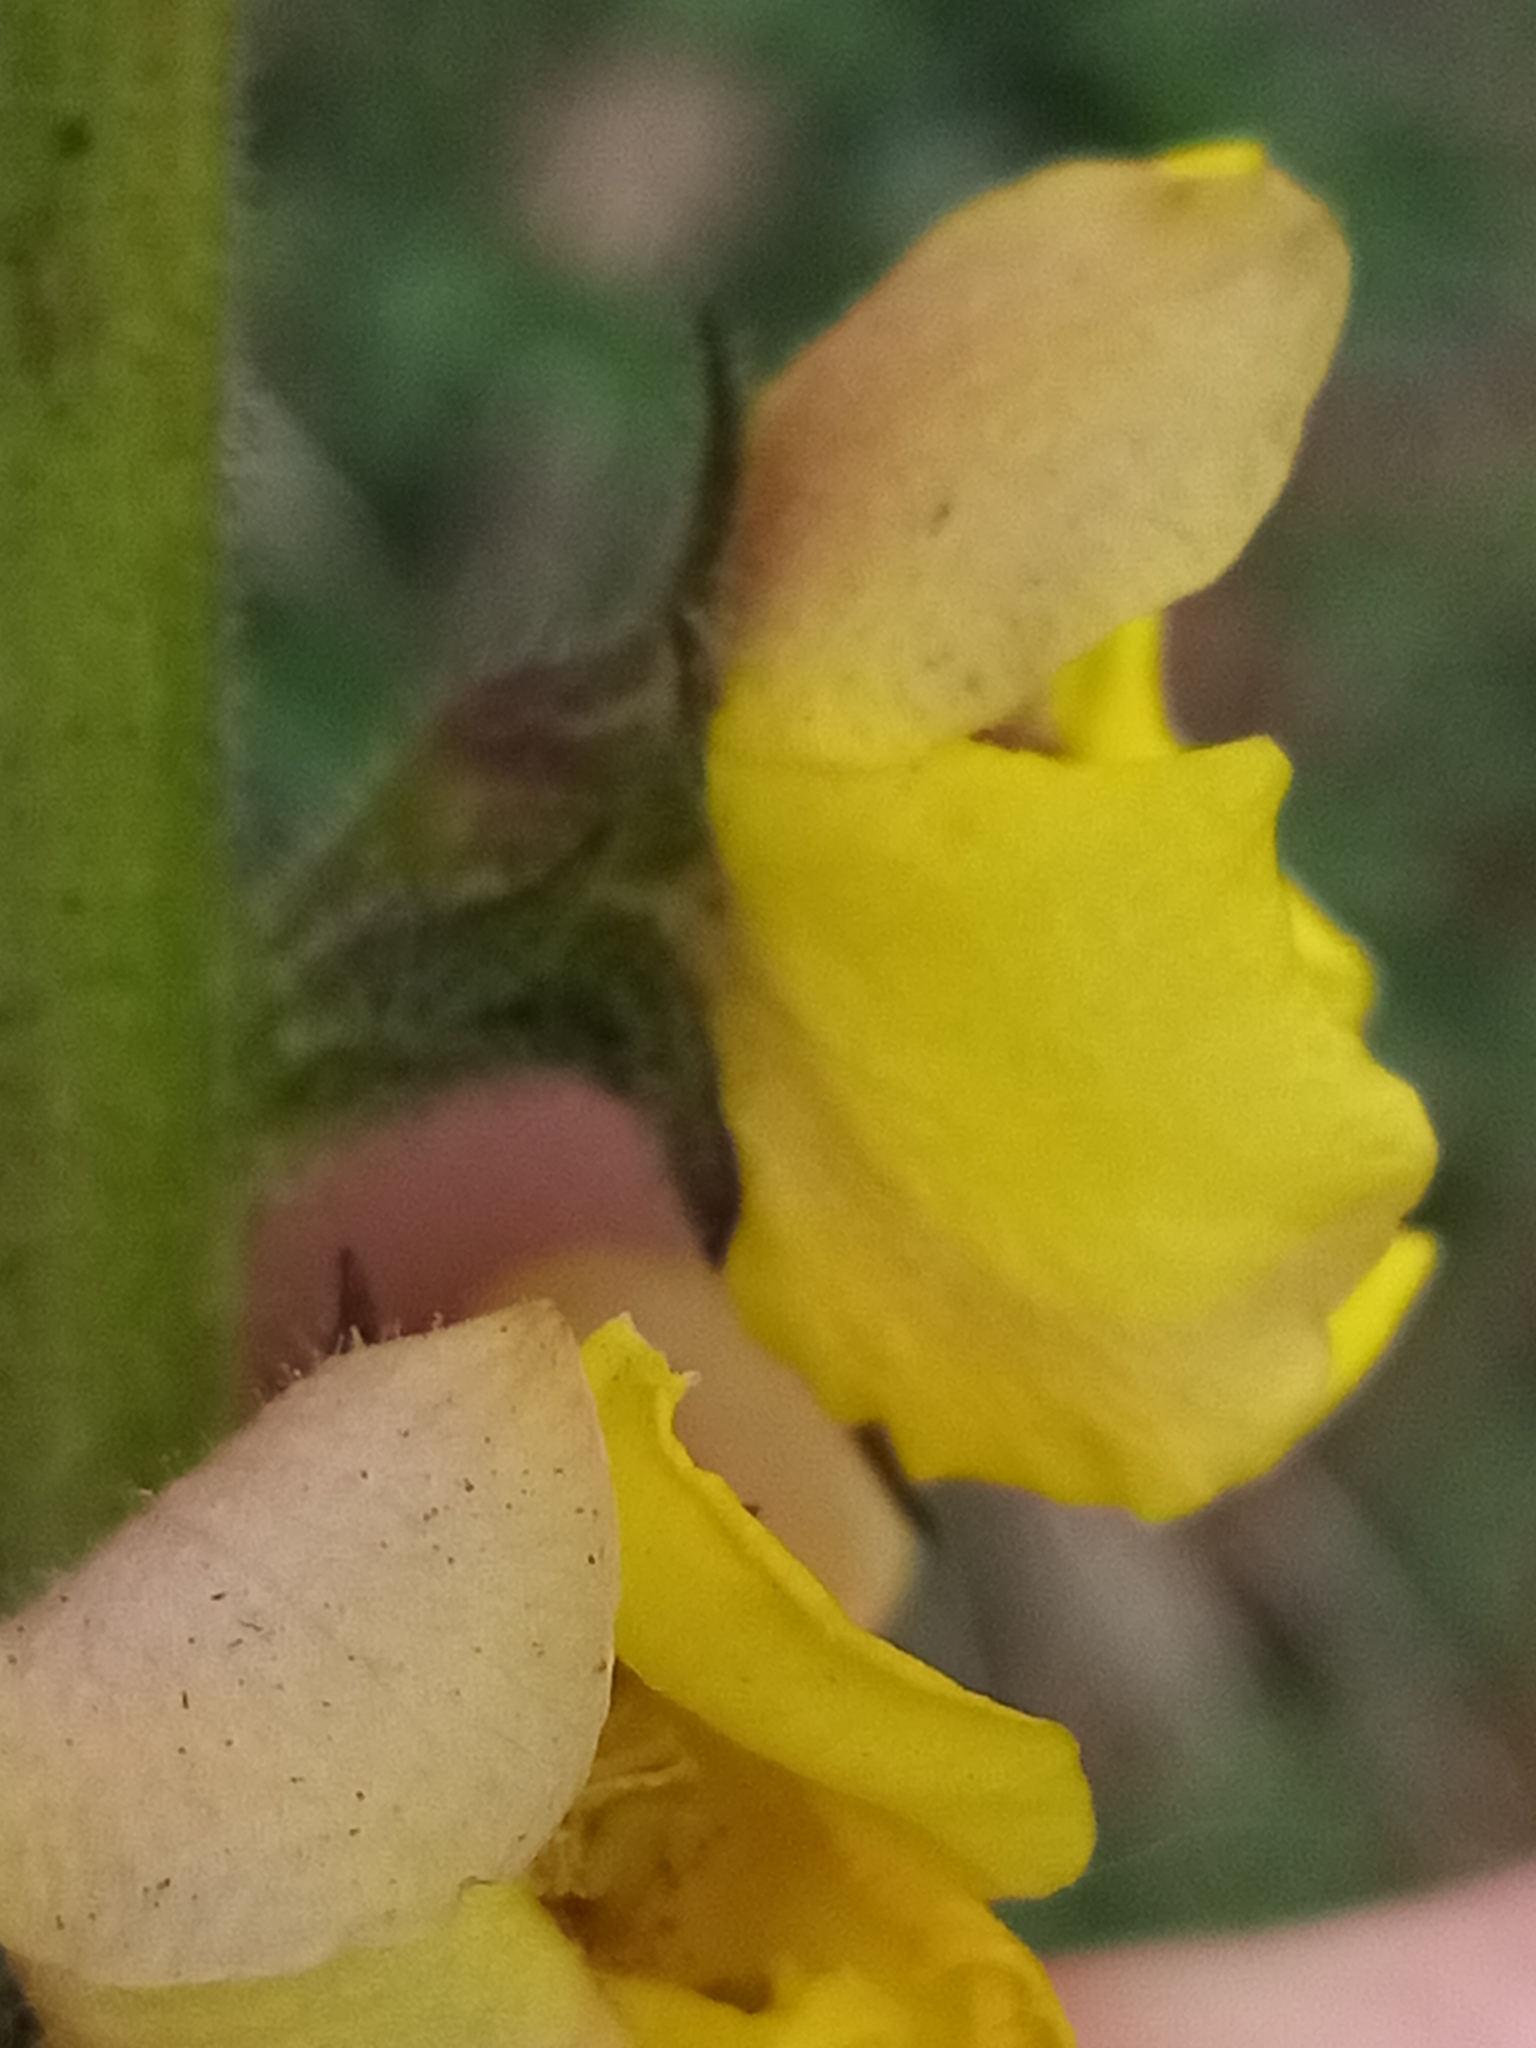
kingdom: Plantae
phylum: Tracheophyta
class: Magnoliopsida
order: Lamiales
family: Scrophulariaceae
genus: Verbascum
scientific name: Verbascum virgatum
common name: Twiggy mullein
